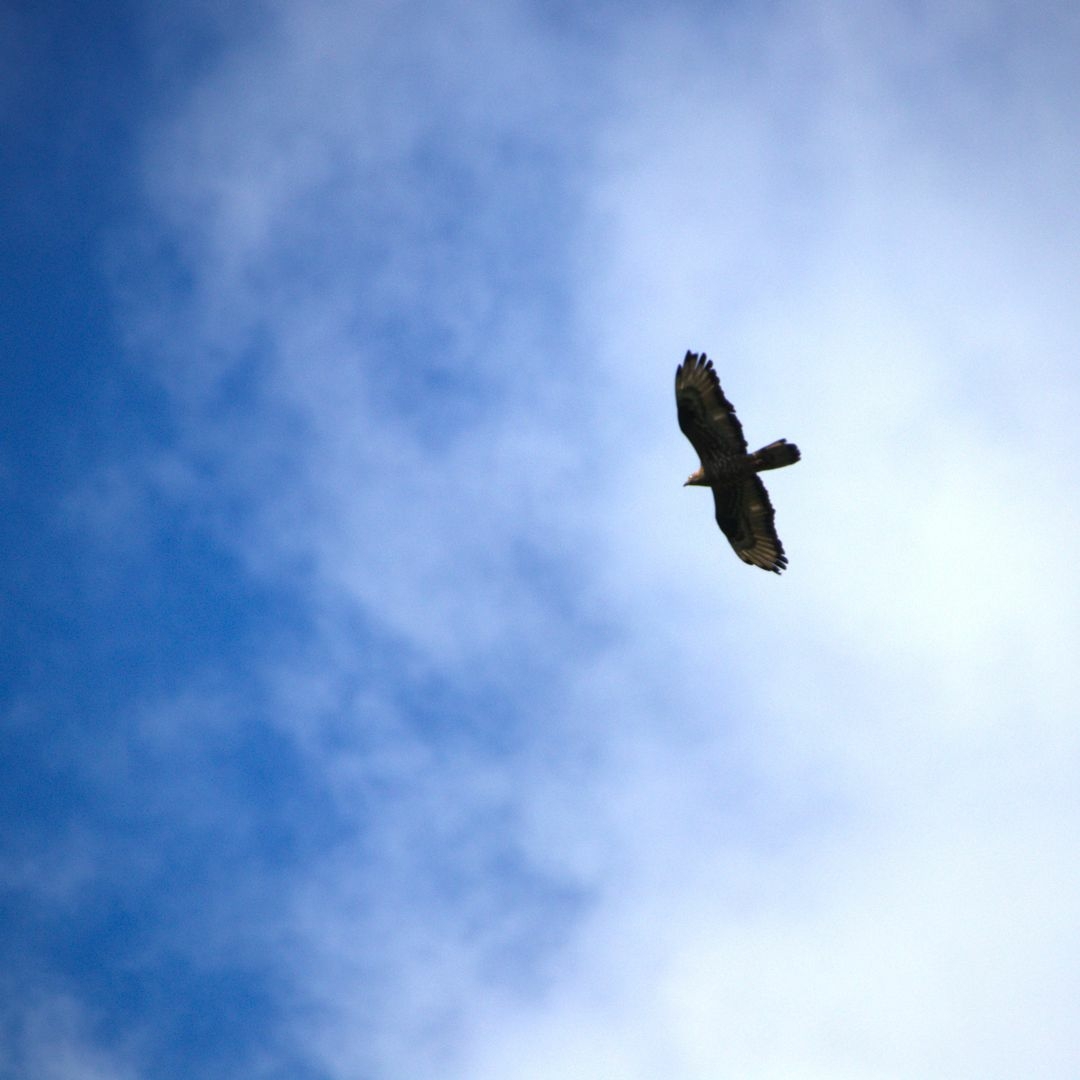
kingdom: Animalia
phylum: Chordata
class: Aves
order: Accipitriformes
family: Accipitridae
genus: Pernis
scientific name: Pernis apivorus
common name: European honey buzzard
